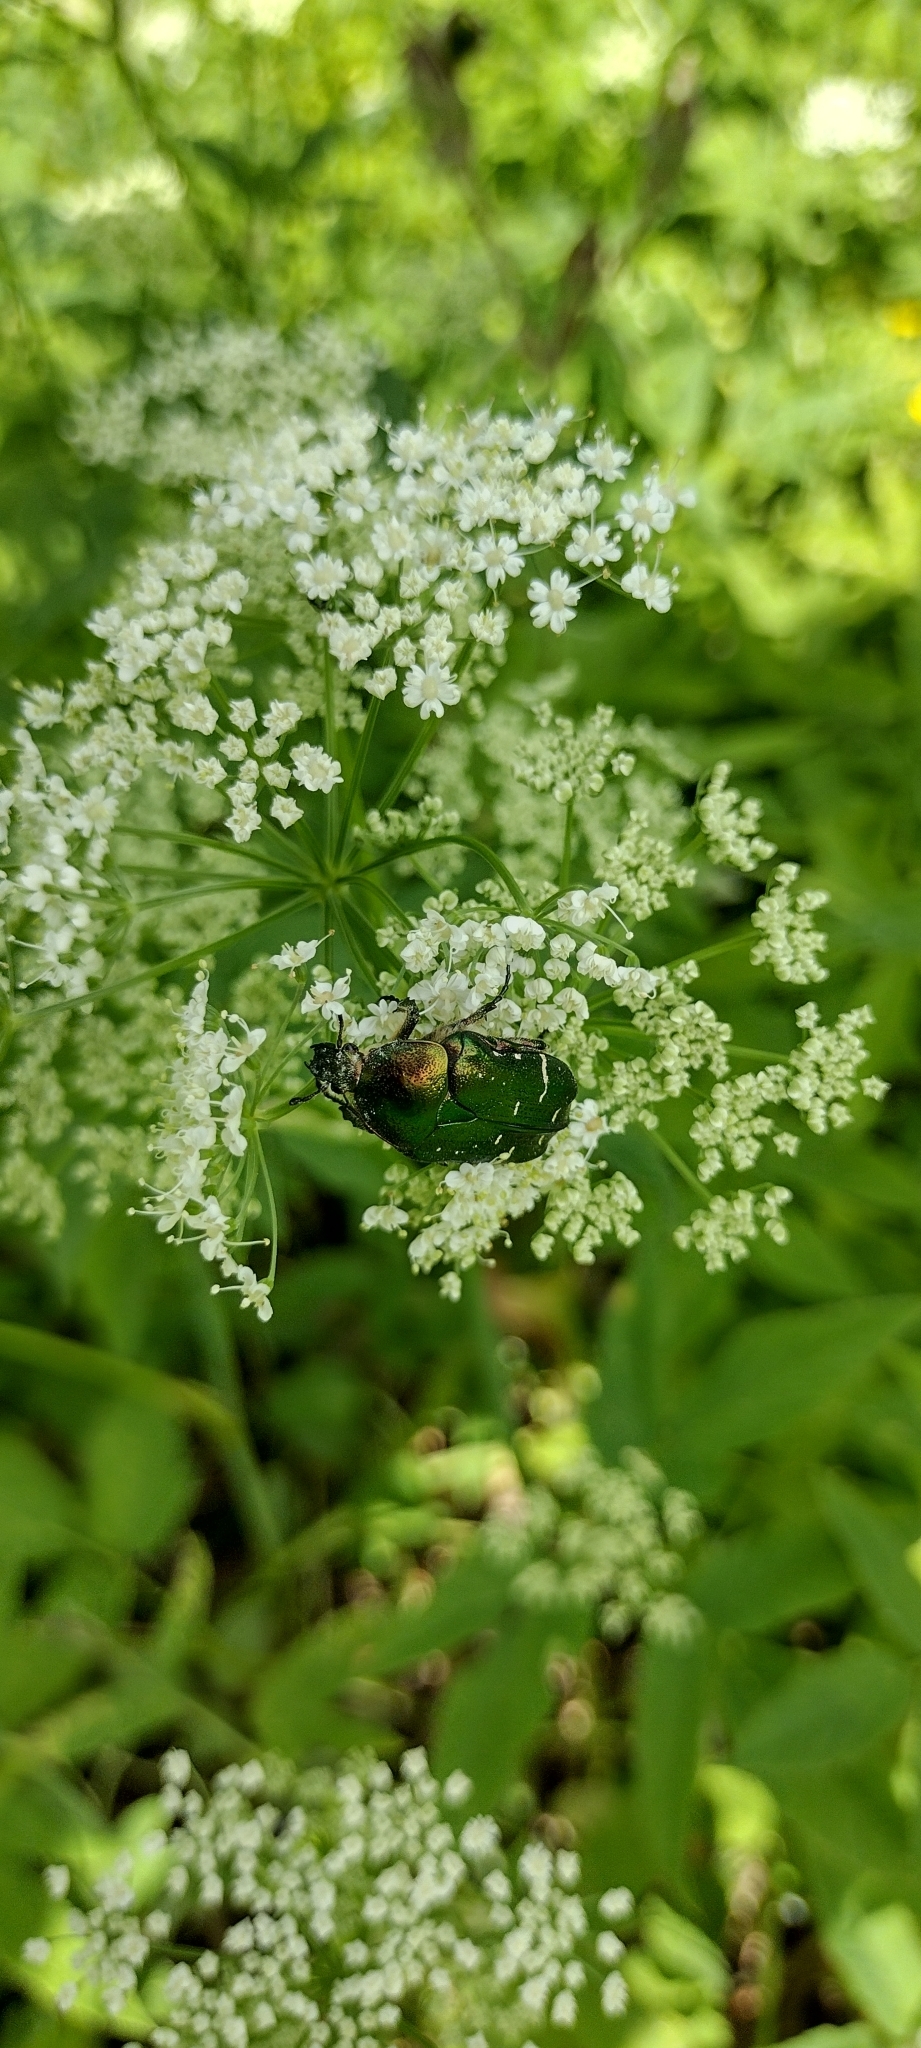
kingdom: Animalia
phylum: Arthropoda
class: Insecta
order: Coleoptera
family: Scarabaeidae
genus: Cetonia
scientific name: Cetonia aurata
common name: Rose chafer
